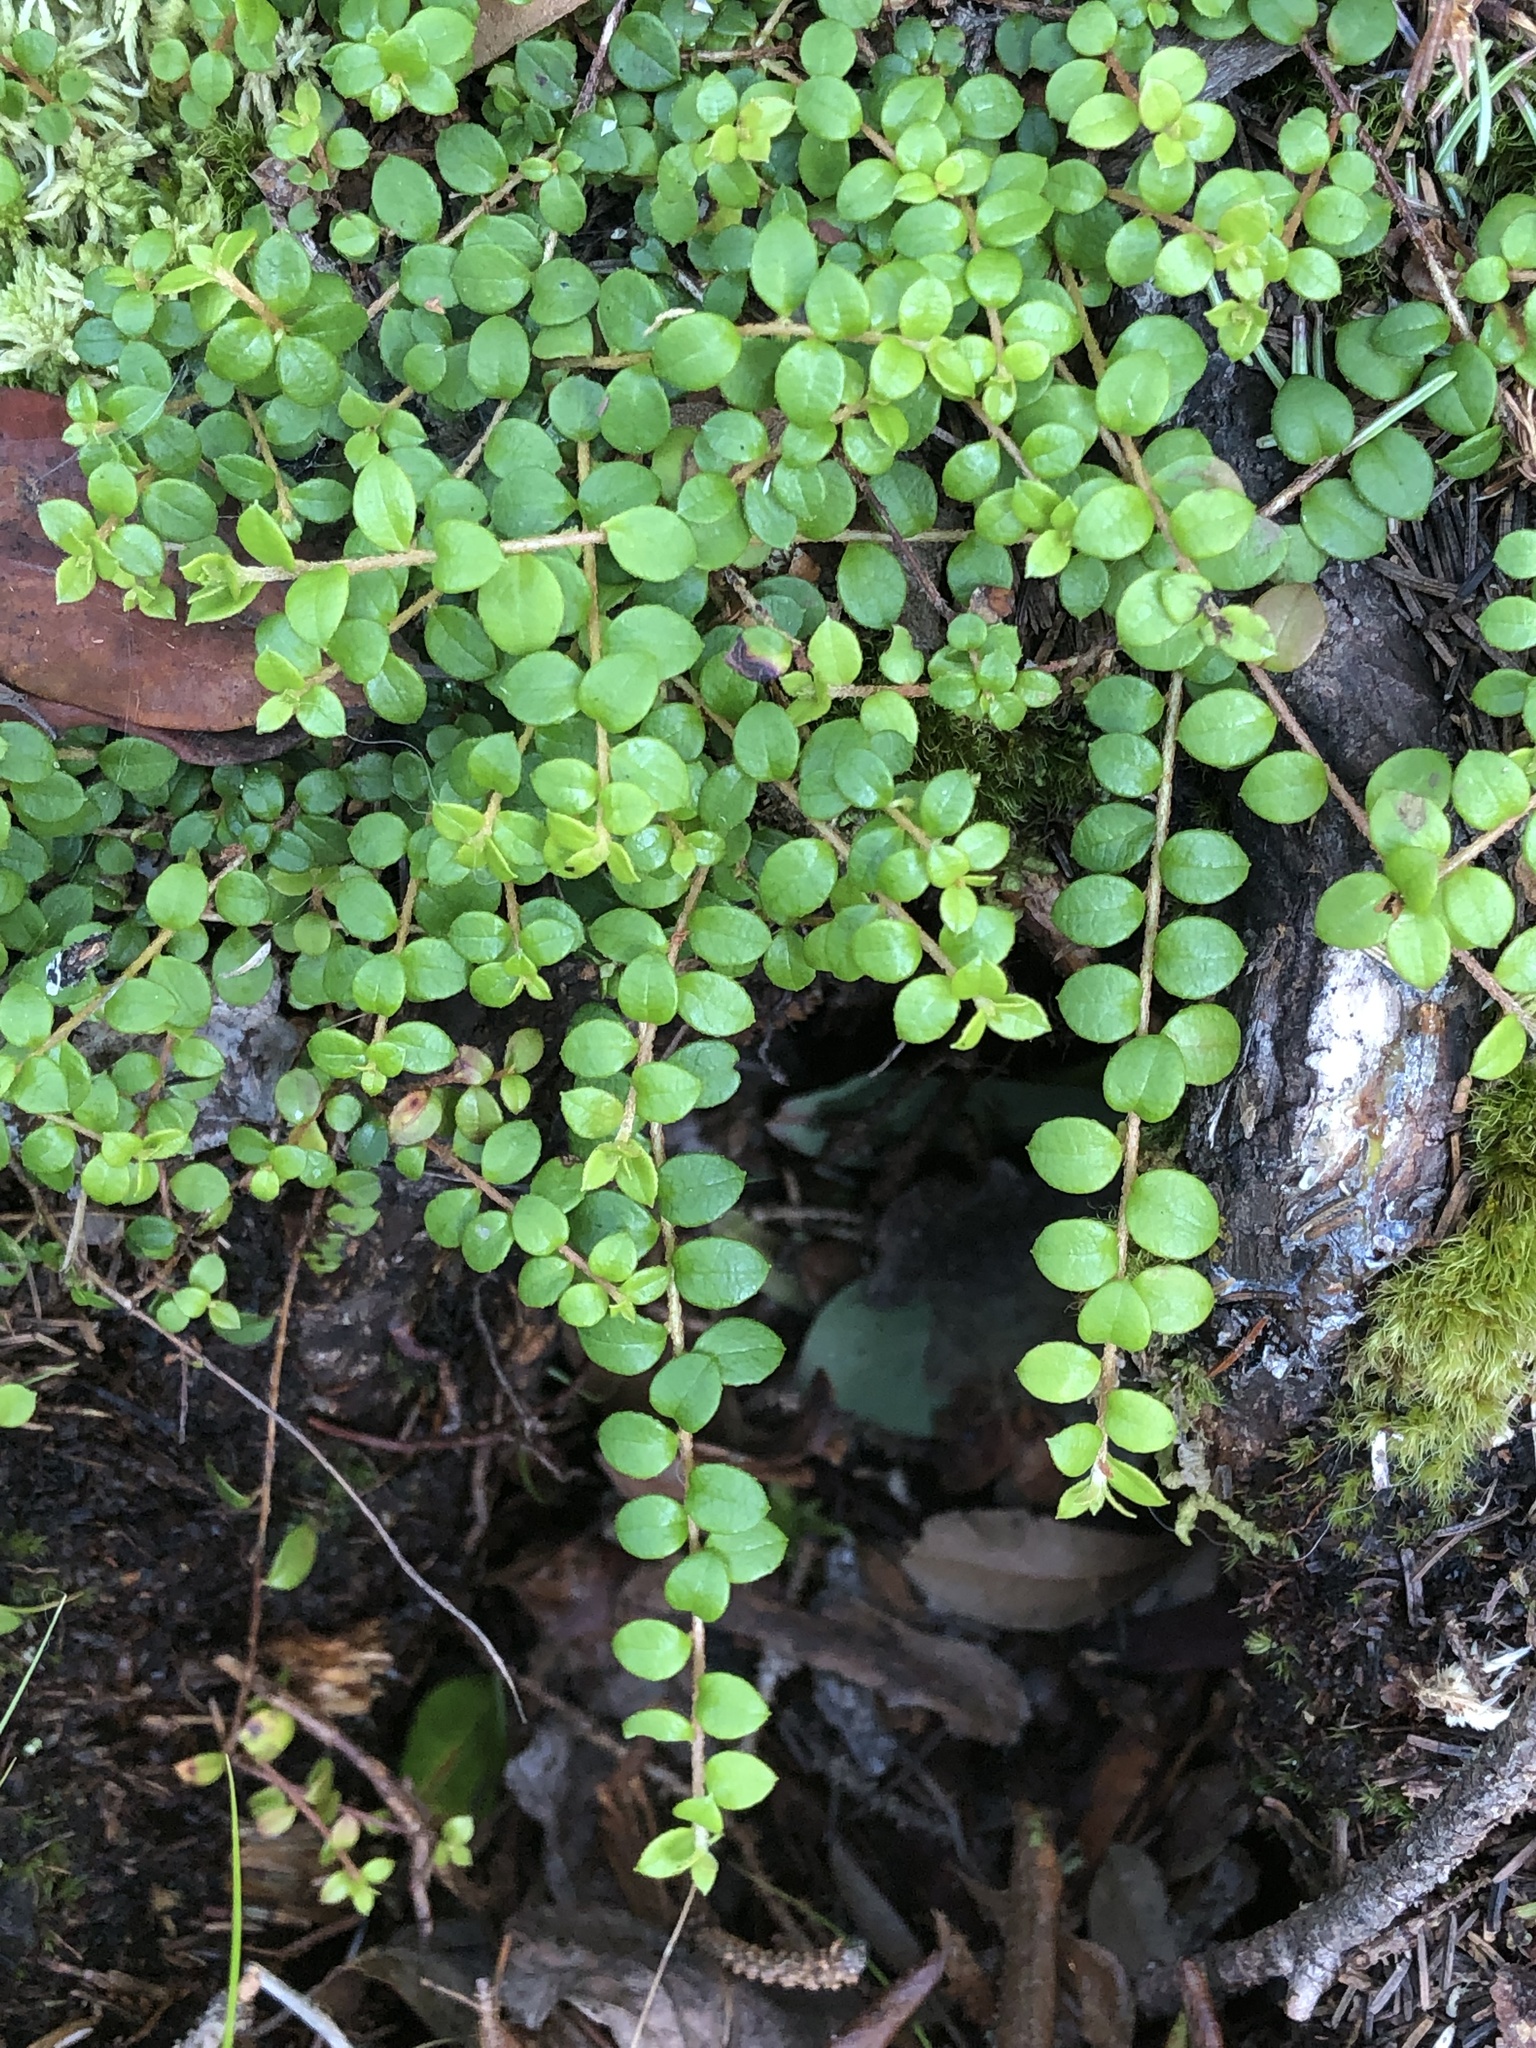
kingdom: Plantae
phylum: Tracheophyta
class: Magnoliopsida
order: Ericales
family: Ericaceae
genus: Gaultheria
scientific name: Gaultheria hispidula
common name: Cancer wintergreen
